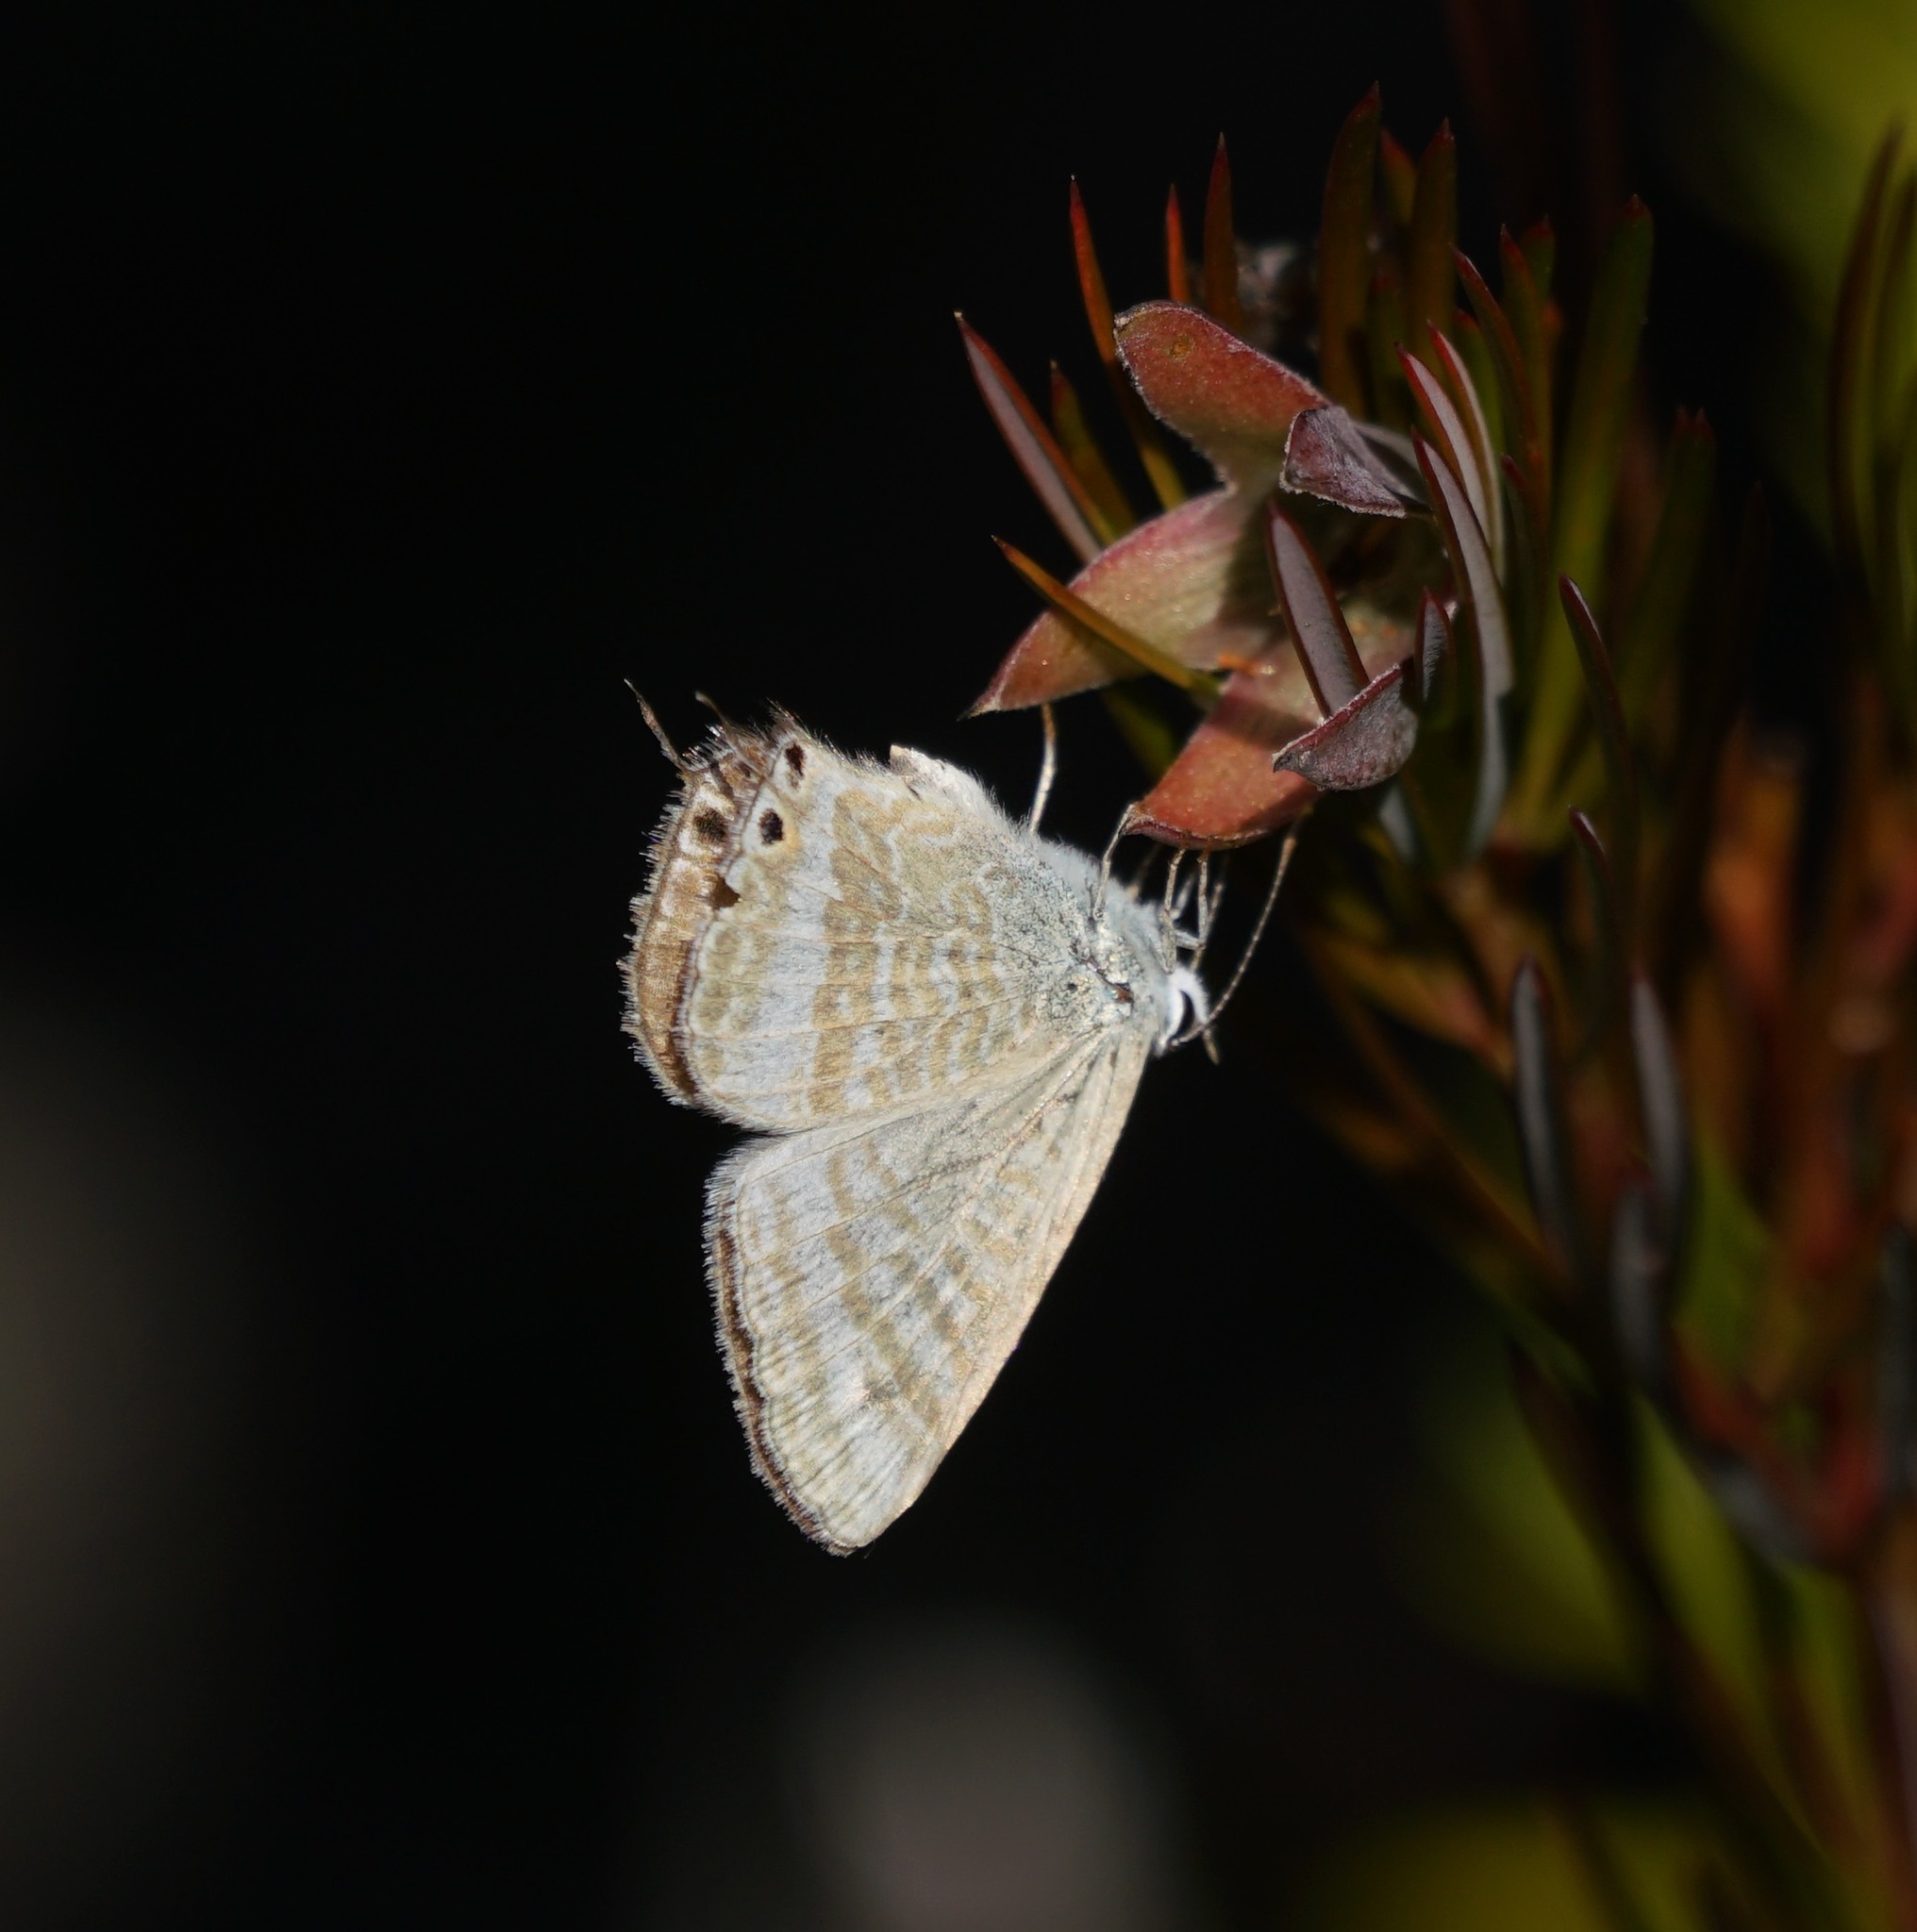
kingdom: Animalia
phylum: Arthropoda
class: Insecta
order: Lepidoptera
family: Lycaenidae
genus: Lampides
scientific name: Lampides boeticus
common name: Long-tailed blue
